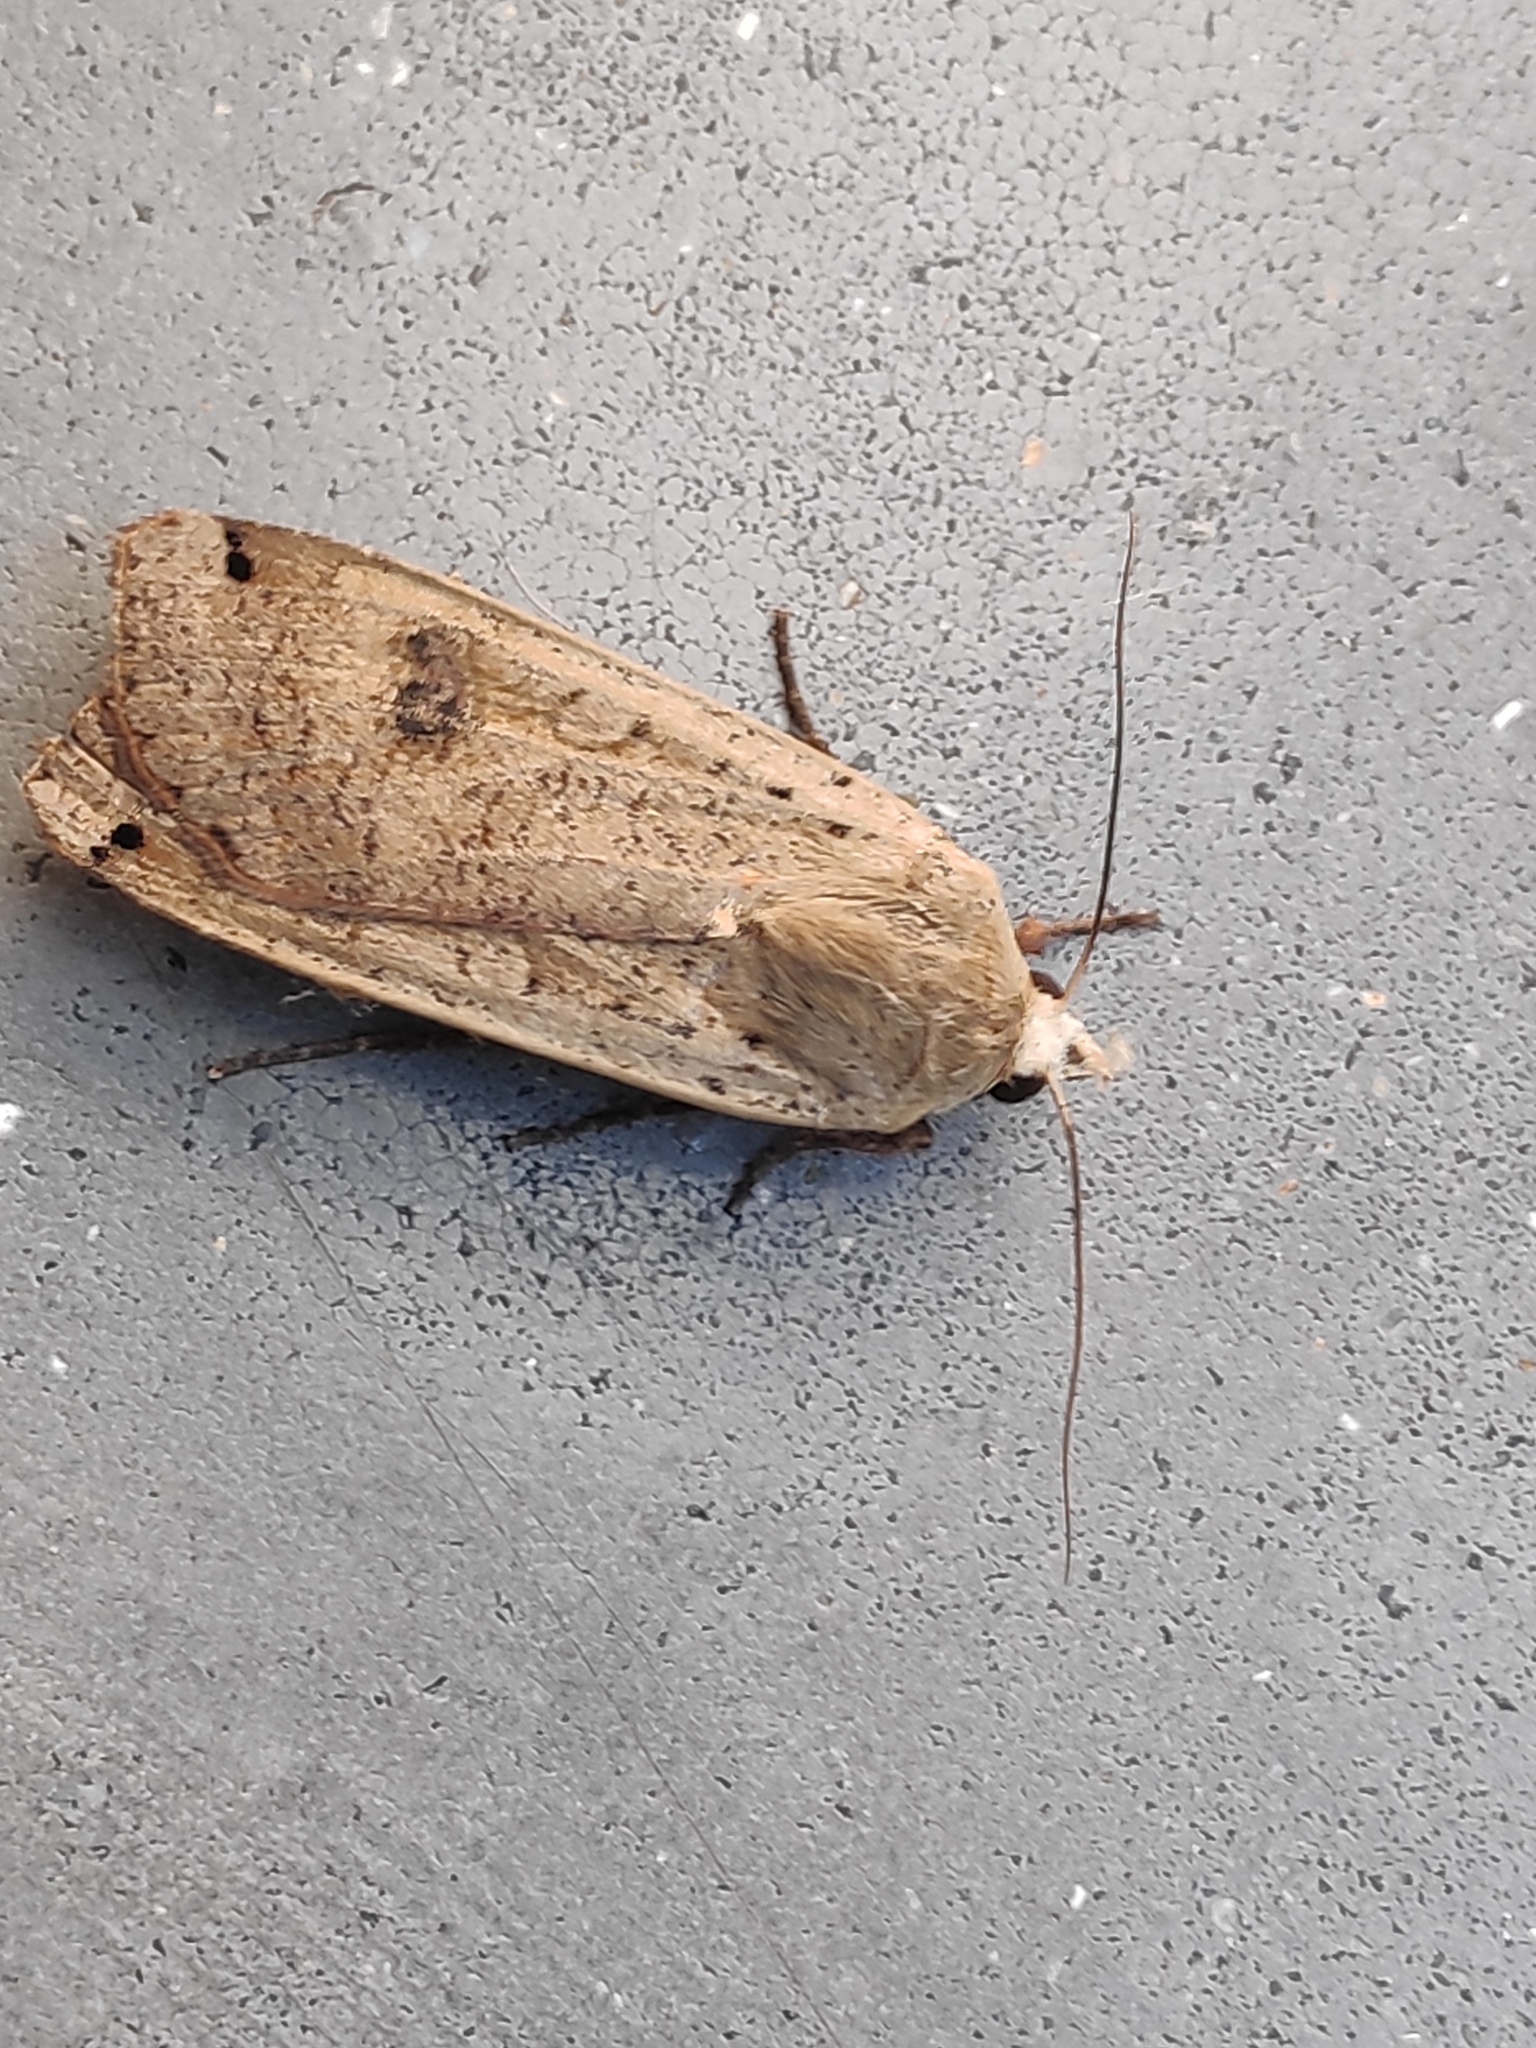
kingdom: Animalia
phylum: Arthropoda
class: Insecta
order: Lepidoptera
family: Noctuidae
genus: Noctua
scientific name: Noctua pronuba
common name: Large yellow underwing
